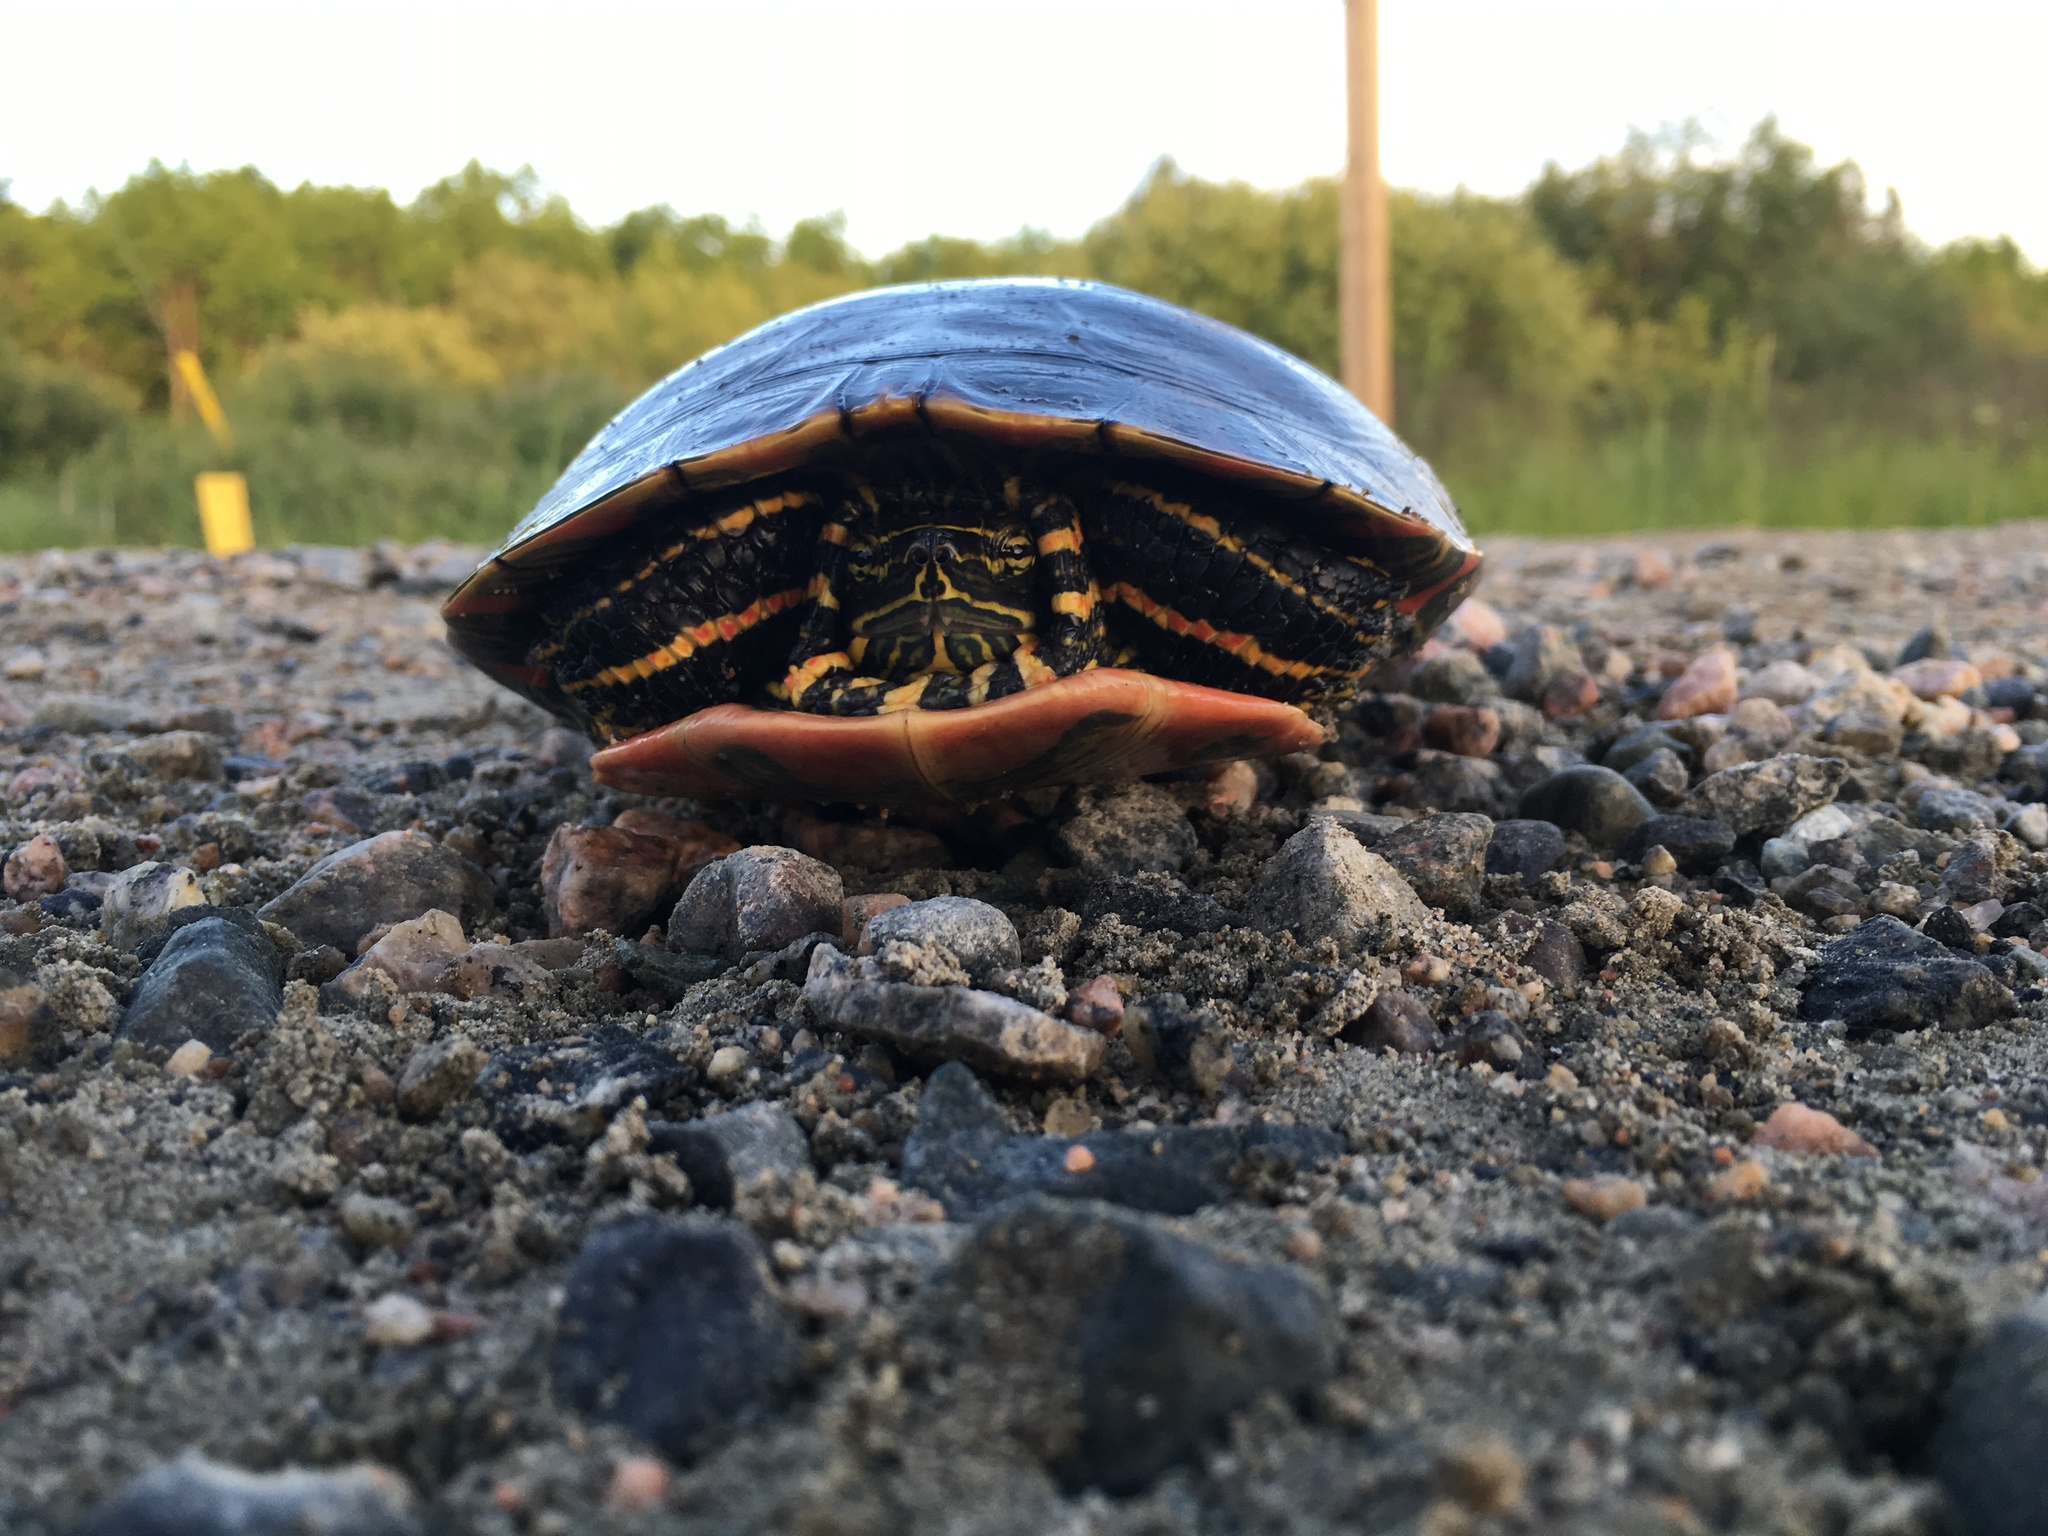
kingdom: Animalia
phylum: Chordata
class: Testudines
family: Emydidae
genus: Chrysemys
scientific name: Chrysemys picta
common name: Painted turtle
